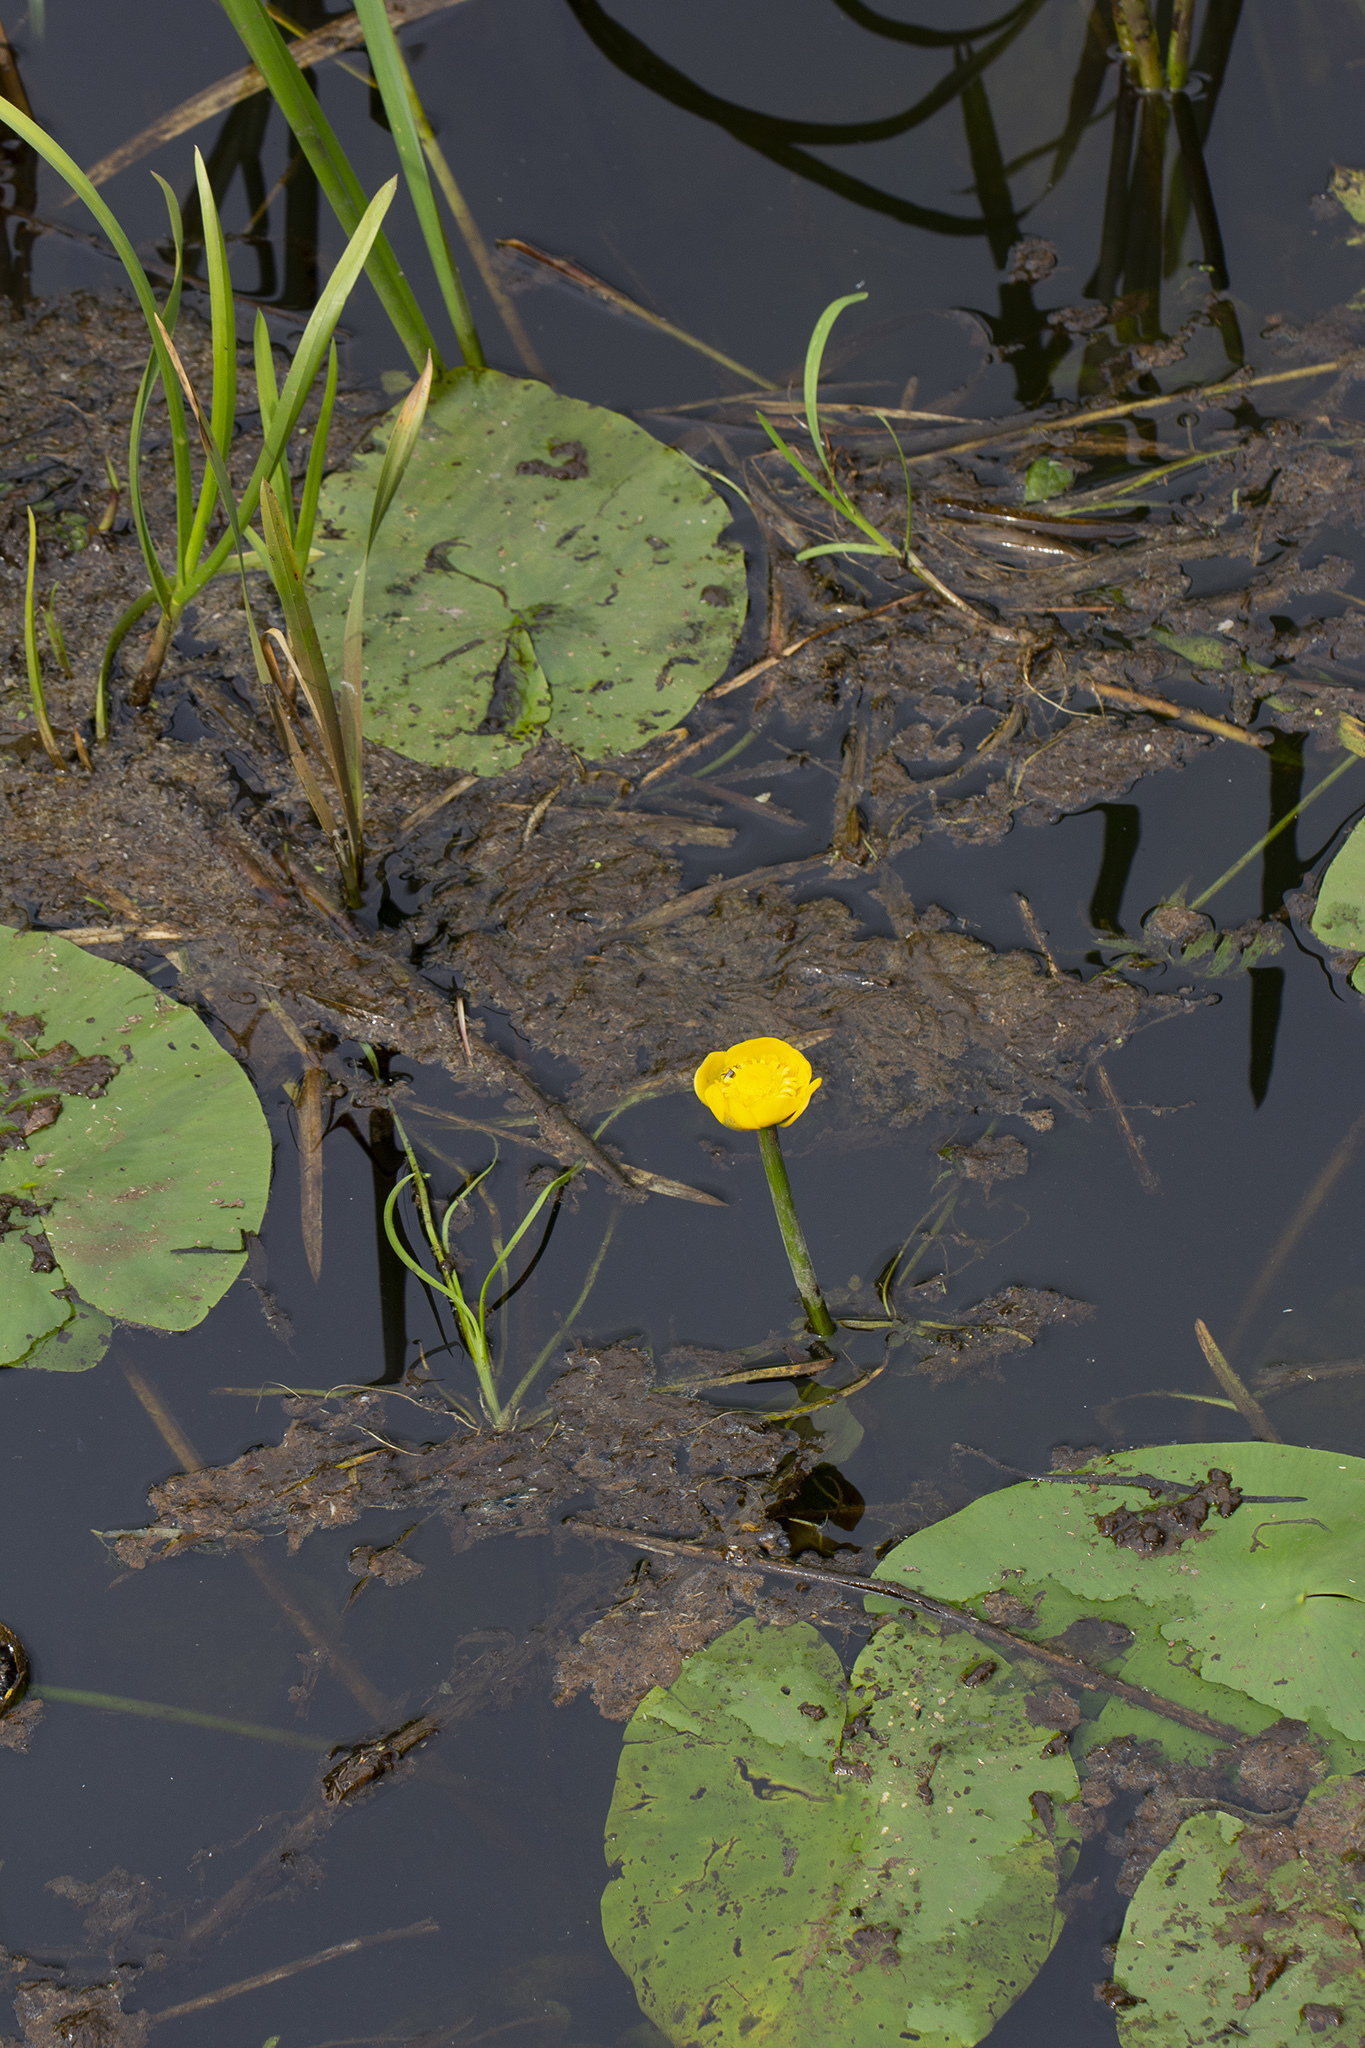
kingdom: Plantae
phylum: Tracheophyta
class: Magnoliopsida
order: Nymphaeales
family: Nymphaeaceae
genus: Nuphar
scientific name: Nuphar lutea
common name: Yellow water-lily
